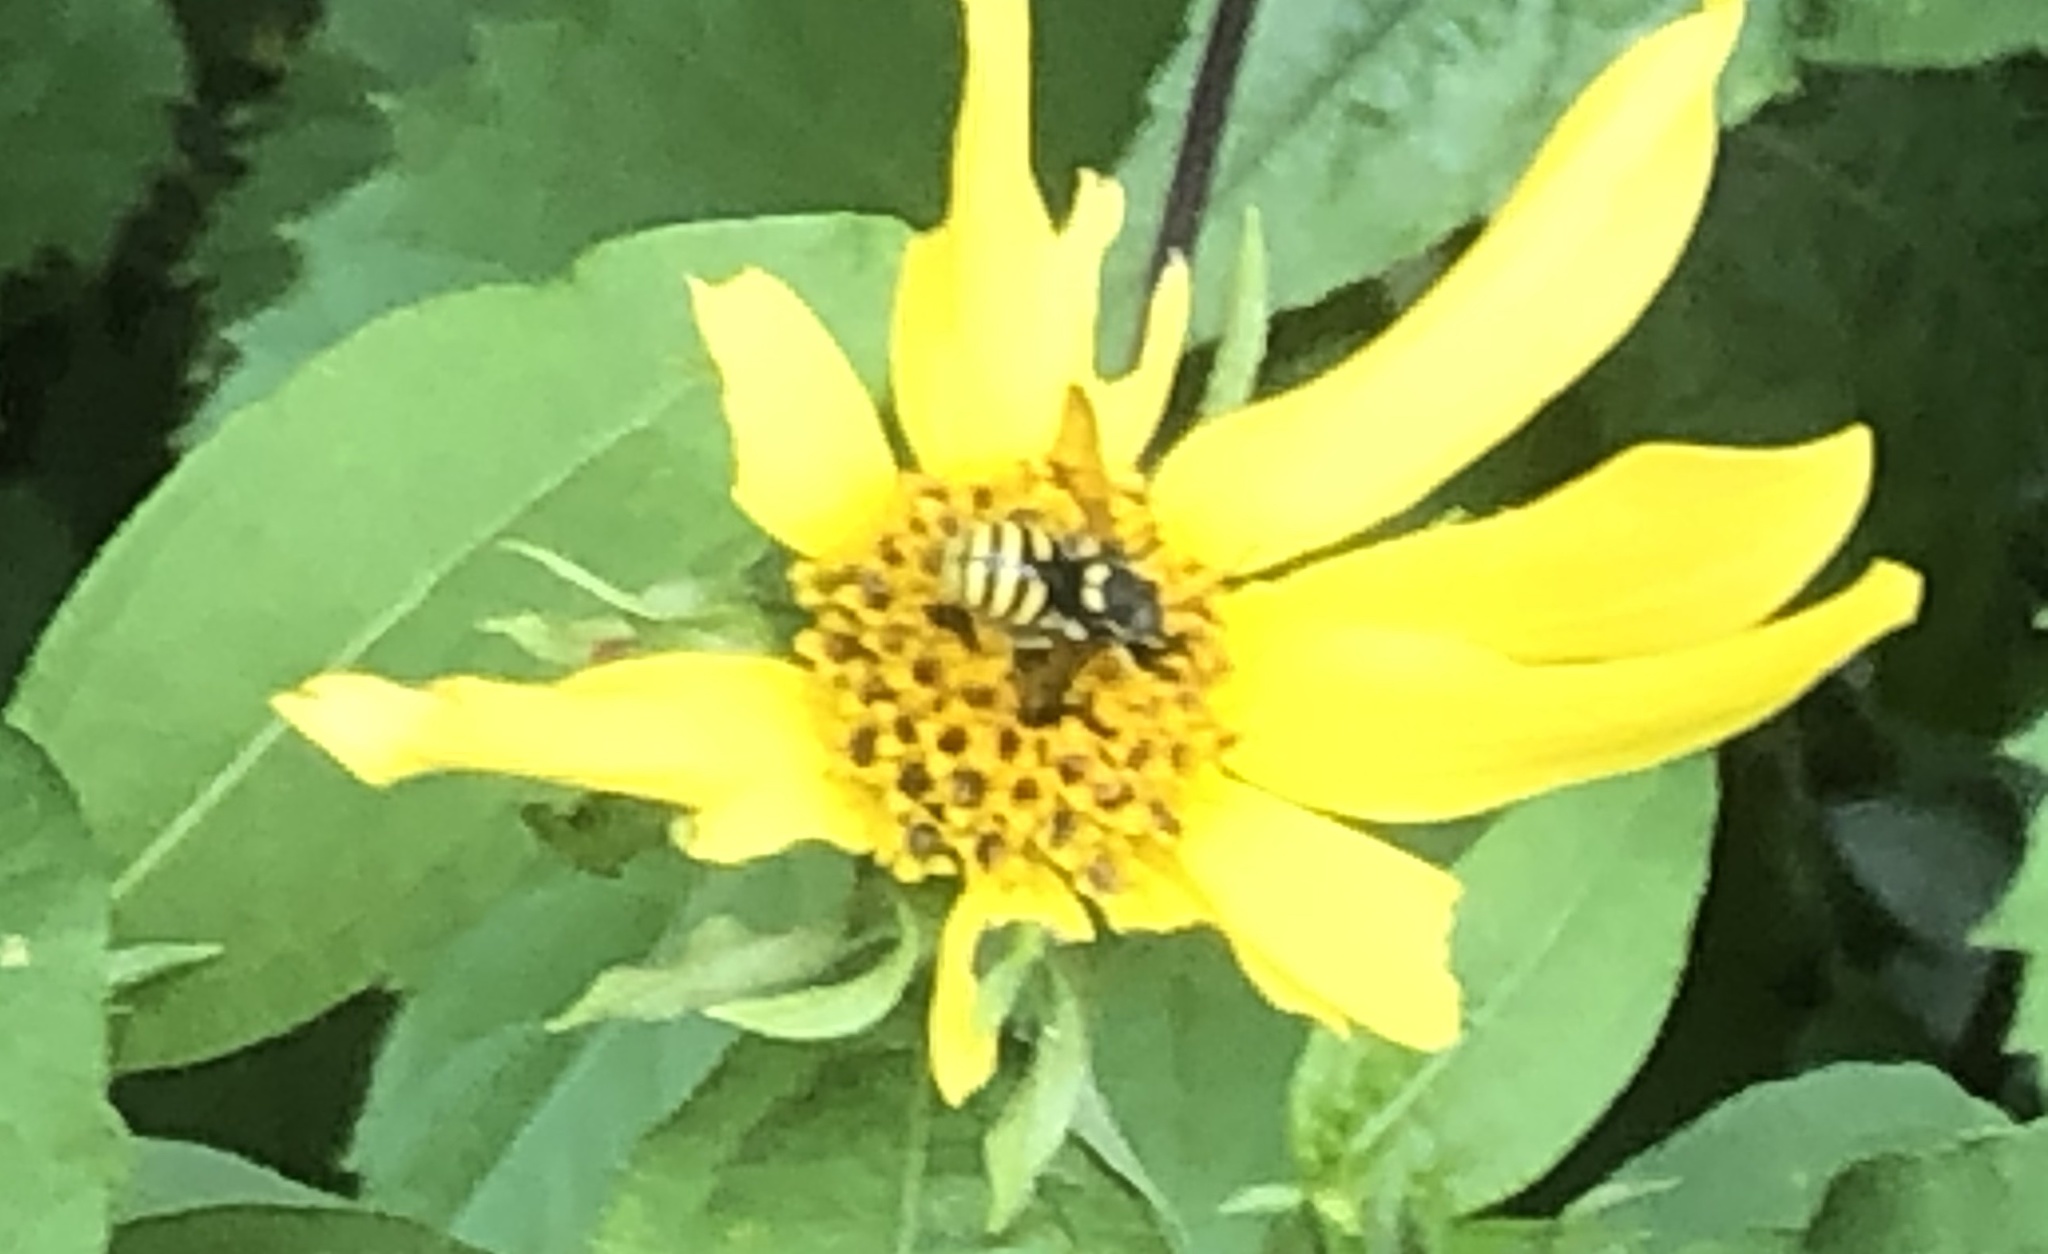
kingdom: Animalia
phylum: Arthropoda
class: Insecta
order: Hymenoptera
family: Megachilidae
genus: Paranthidium
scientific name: Paranthidium jugatorium
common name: Sunflower burrowing-resin bee
